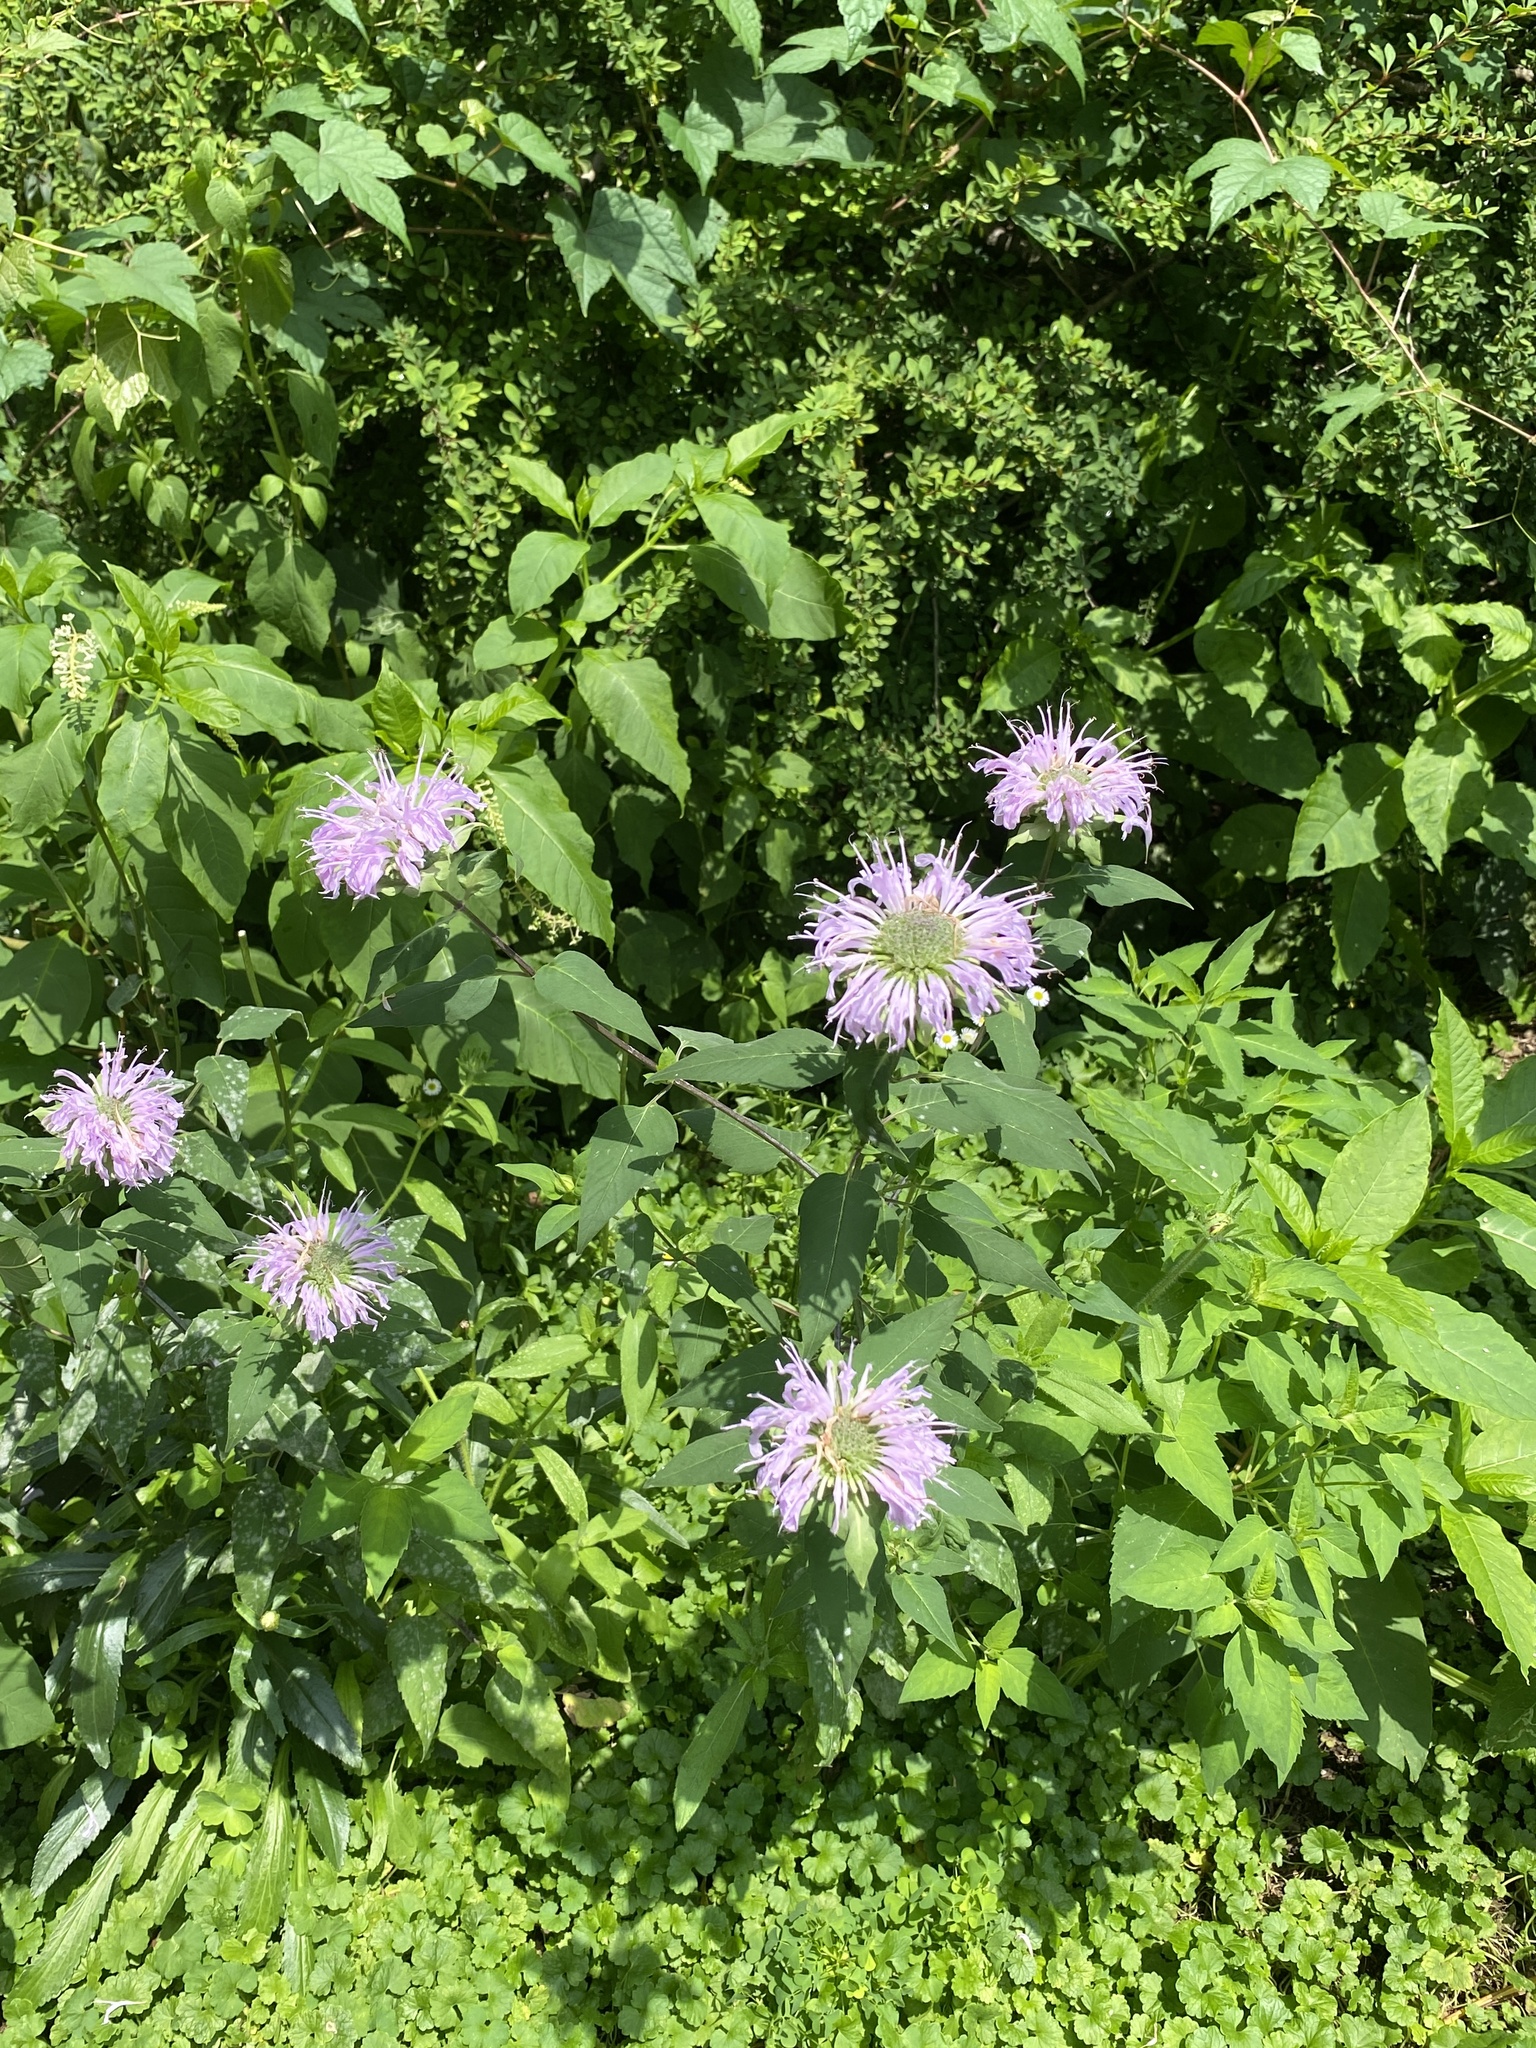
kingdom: Plantae
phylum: Tracheophyta
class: Magnoliopsida
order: Lamiales
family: Lamiaceae
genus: Monarda
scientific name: Monarda fistulosa
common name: Purple beebalm
